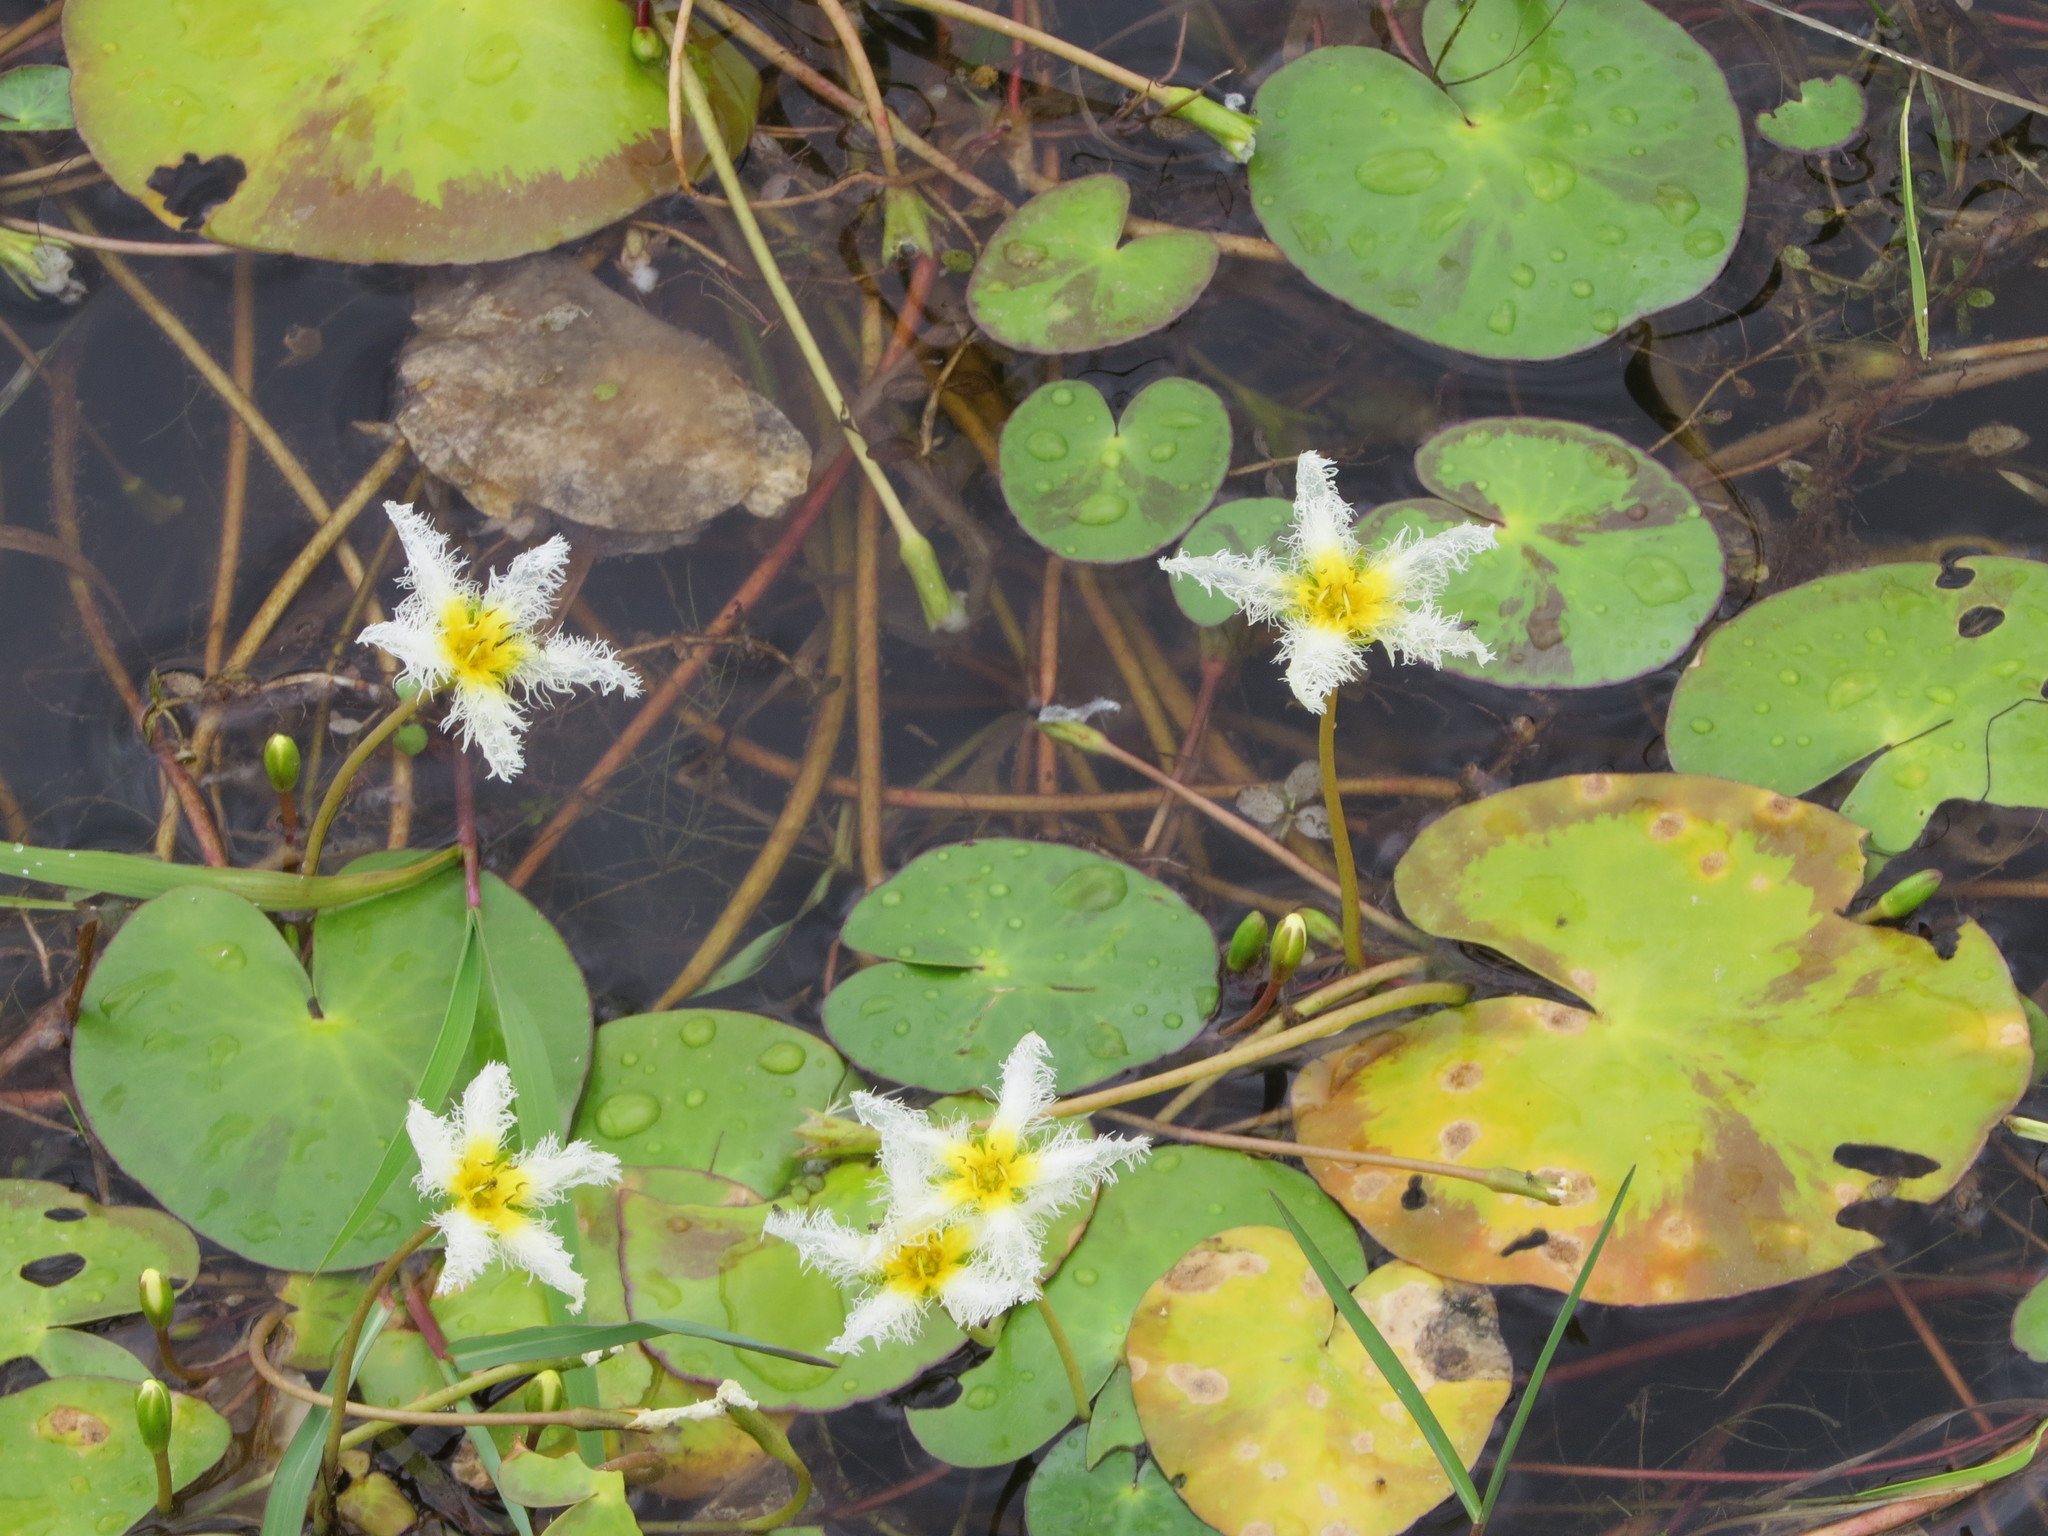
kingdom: Plantae
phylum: Tracheophyta
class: Magnoliopsida
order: Asterales
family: Menyanthaceae
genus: Nymphoides
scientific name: Nymphoides humboldtiana
